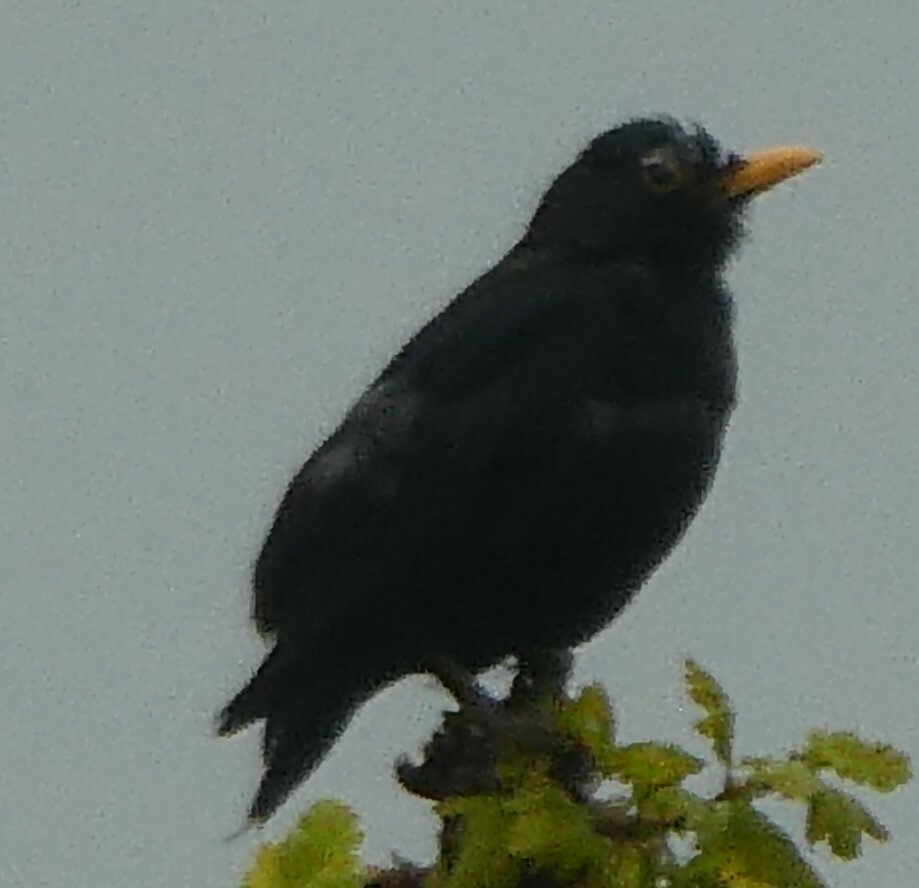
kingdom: Animalia
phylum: Chordata
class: Aves
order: Passeriformes
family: Turdidae
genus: Turdus
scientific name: Turdus merula
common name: Common blackbird
